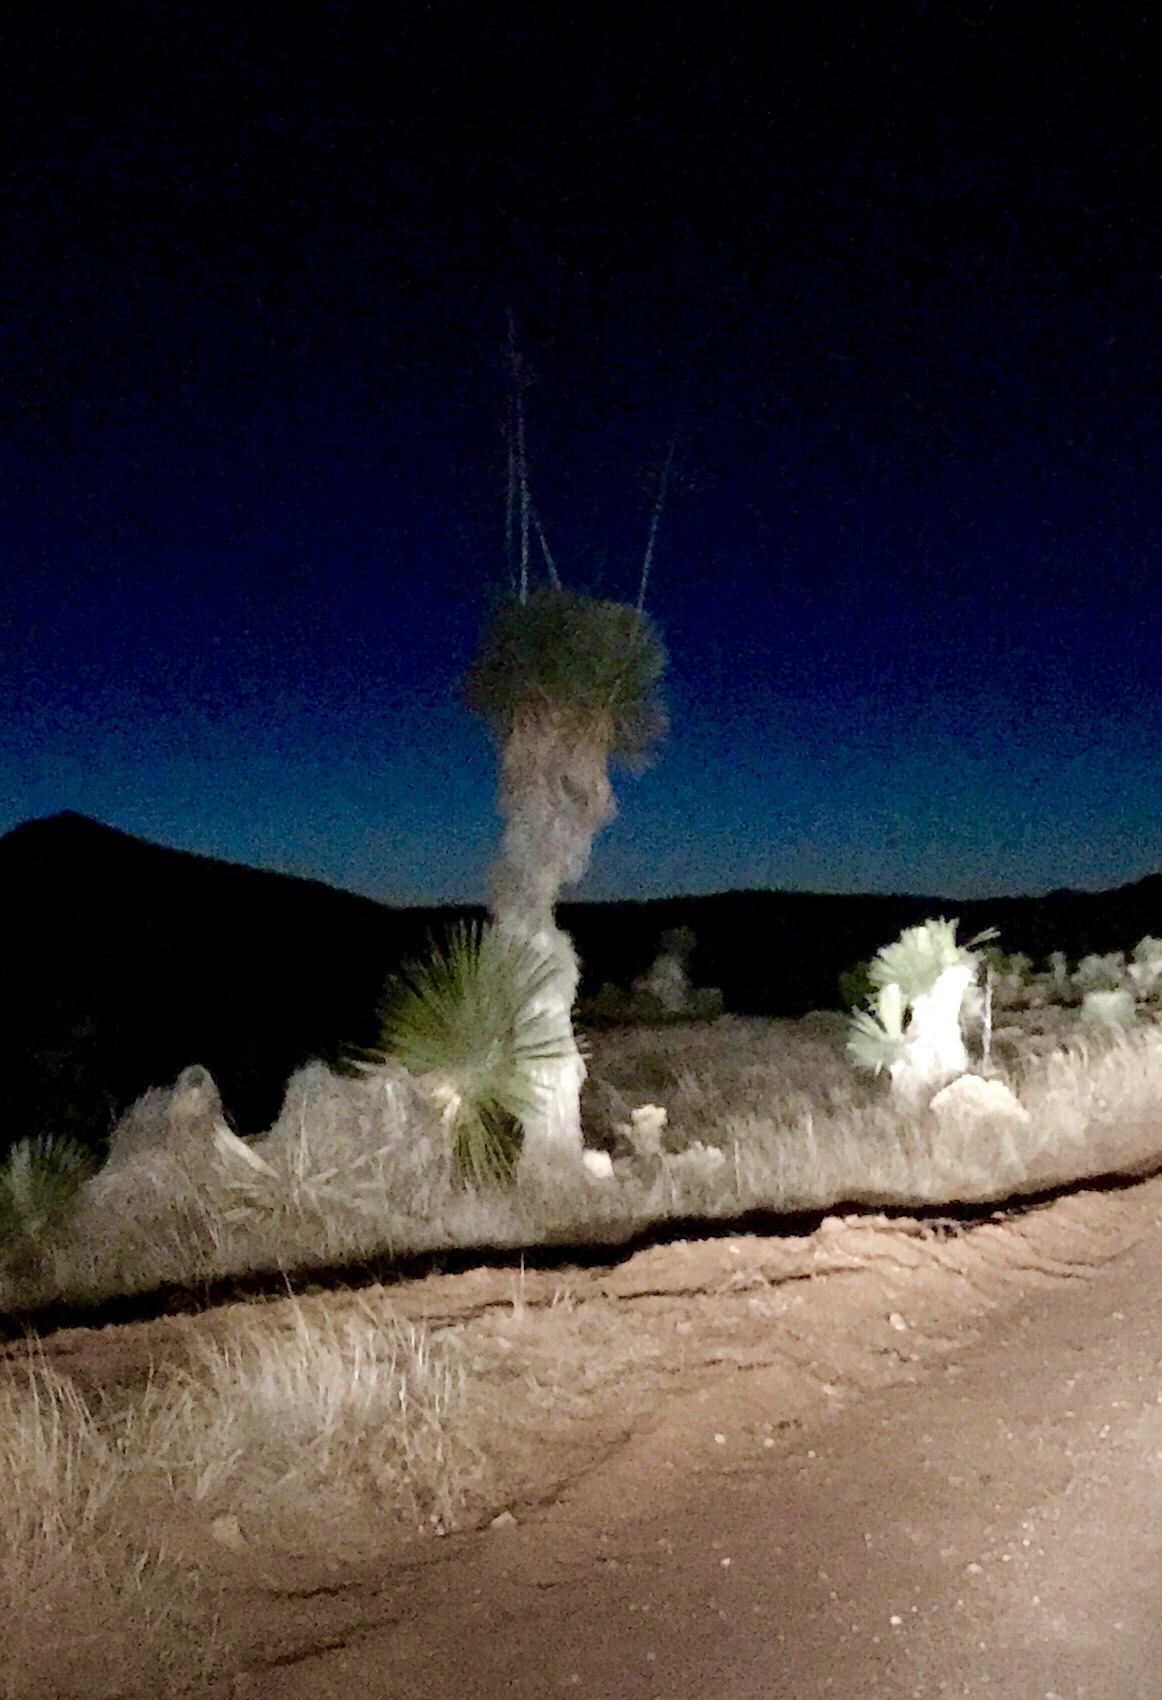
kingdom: Plantae
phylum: Tracheophyta
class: Liliopsida
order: Asparagales
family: Asparagaceae
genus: Yucca
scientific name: Yucca elata
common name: Palmella
